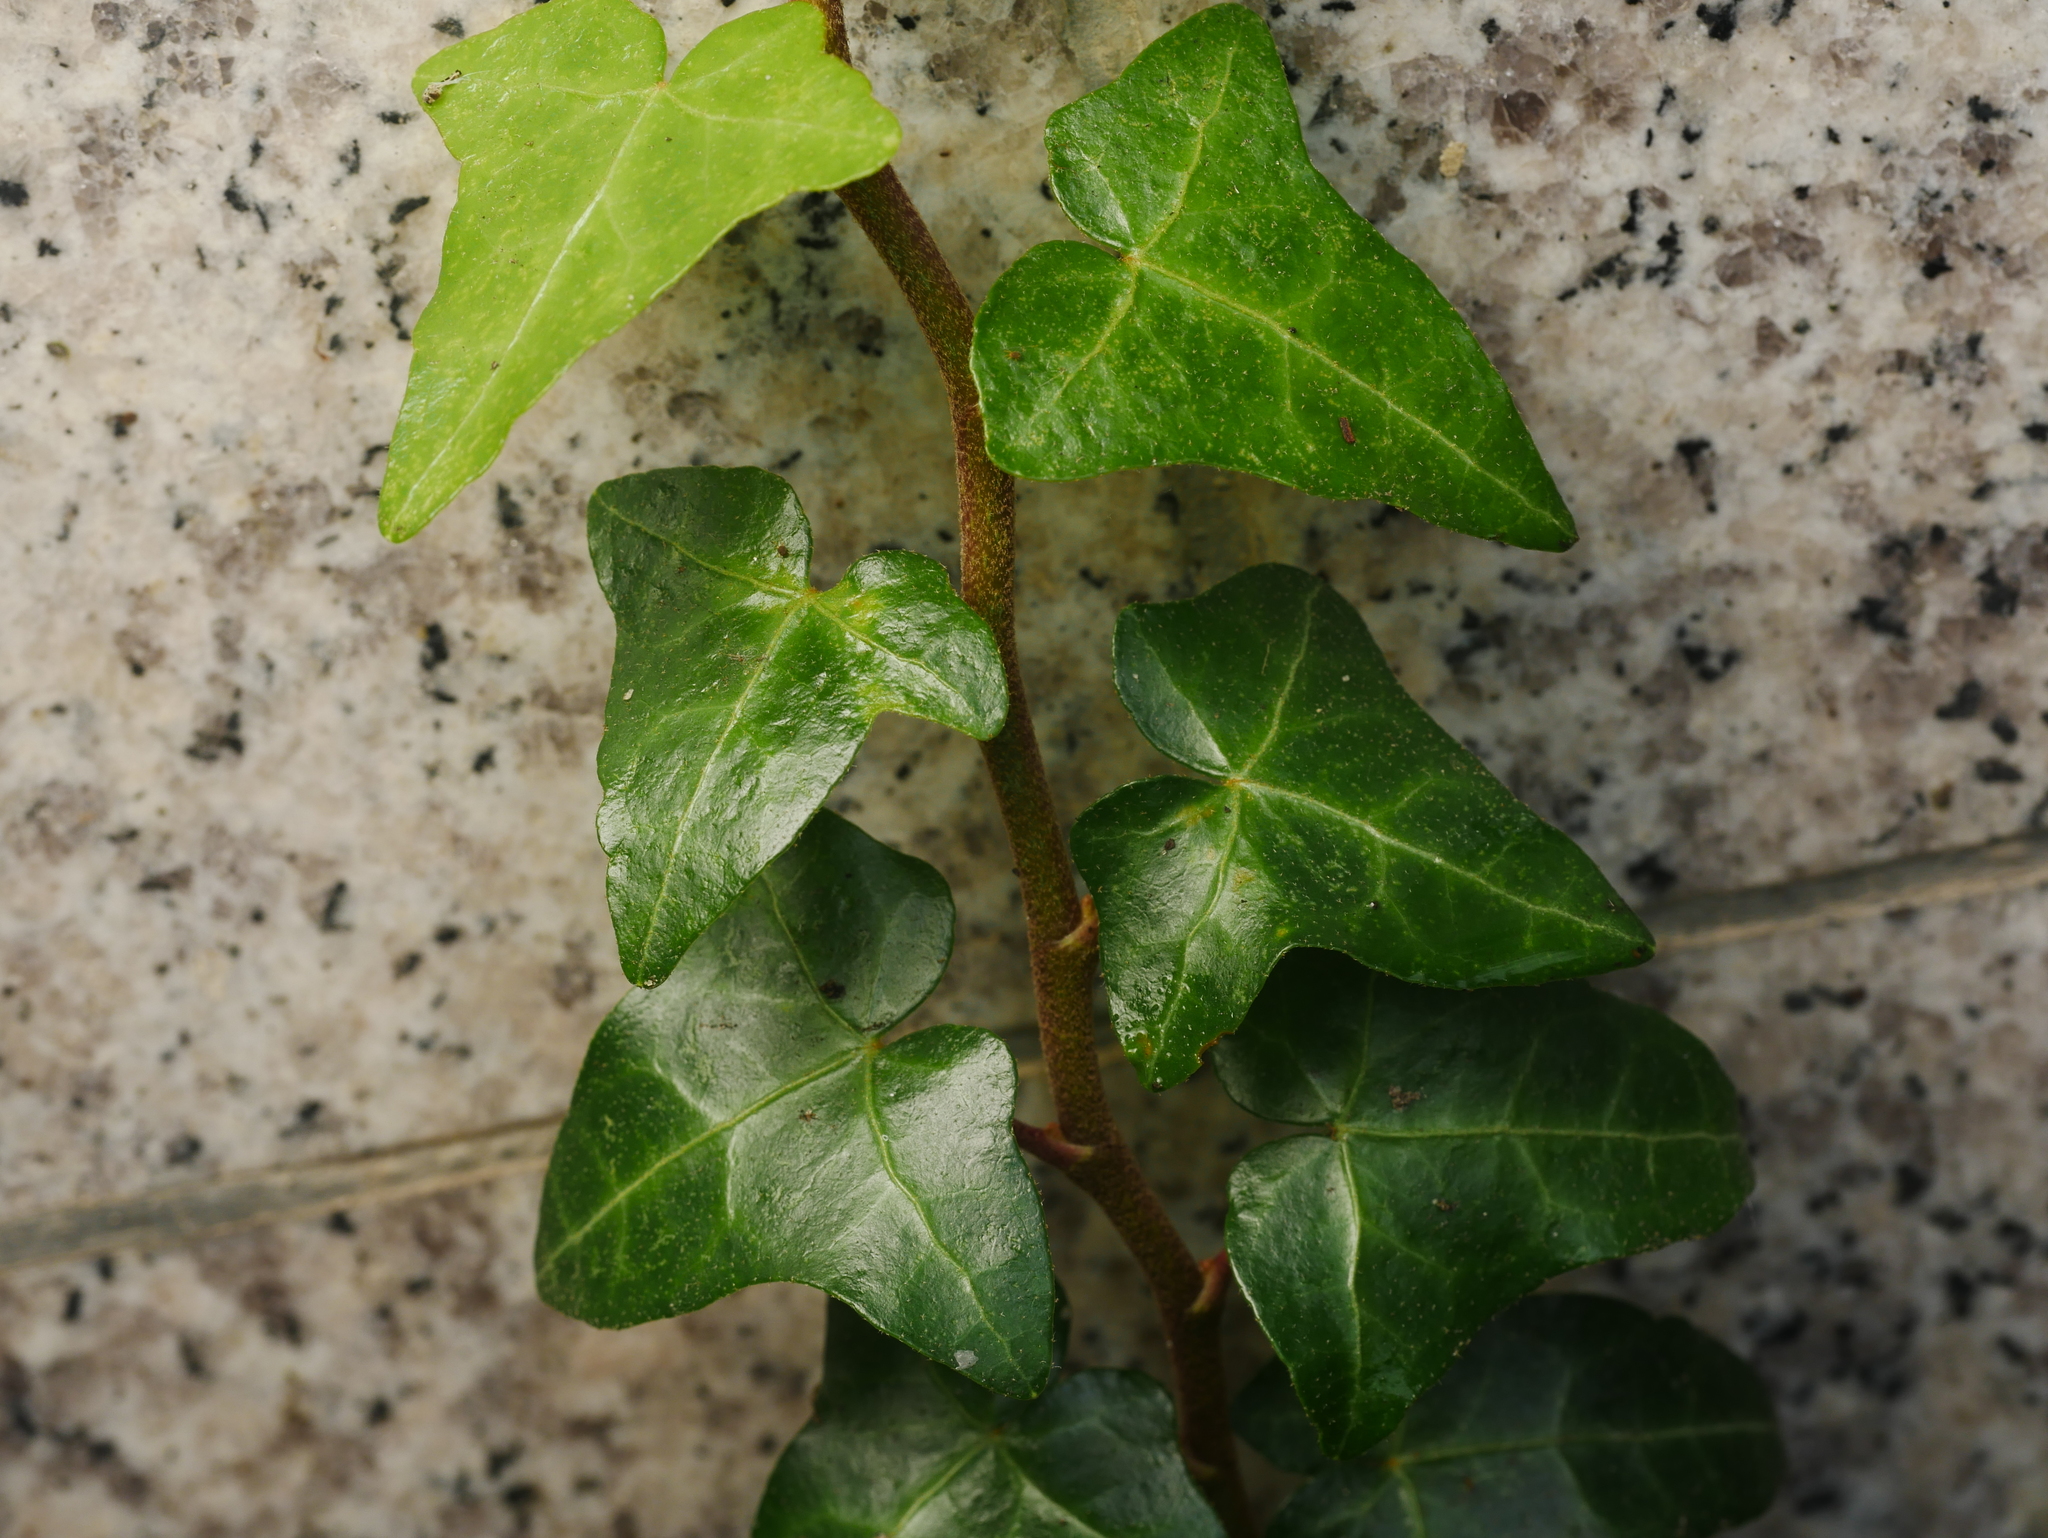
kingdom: Plantae
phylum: Tracheophyta
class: Magnoliopsida
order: Apiales
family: Araliaceae
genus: Hedera
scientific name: Hedera helix
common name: Ivy
